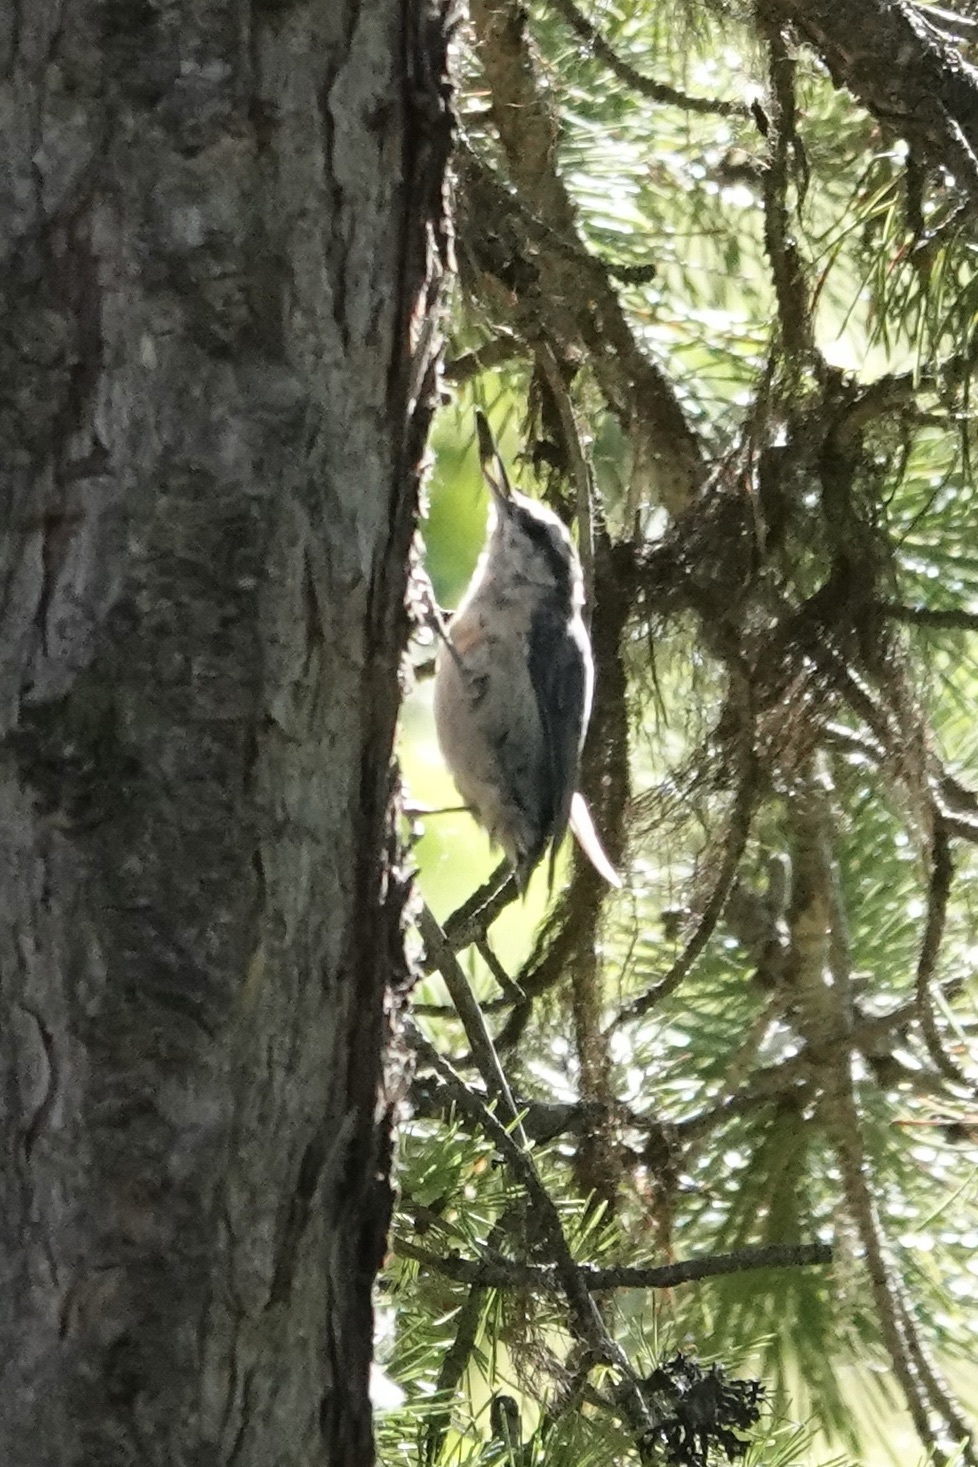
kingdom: Animalia
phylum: Chordata
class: Aves
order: Passeriformes
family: Sittidae
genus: Sitta
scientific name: Sitta carolinensis
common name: White-breasted nuthatch
